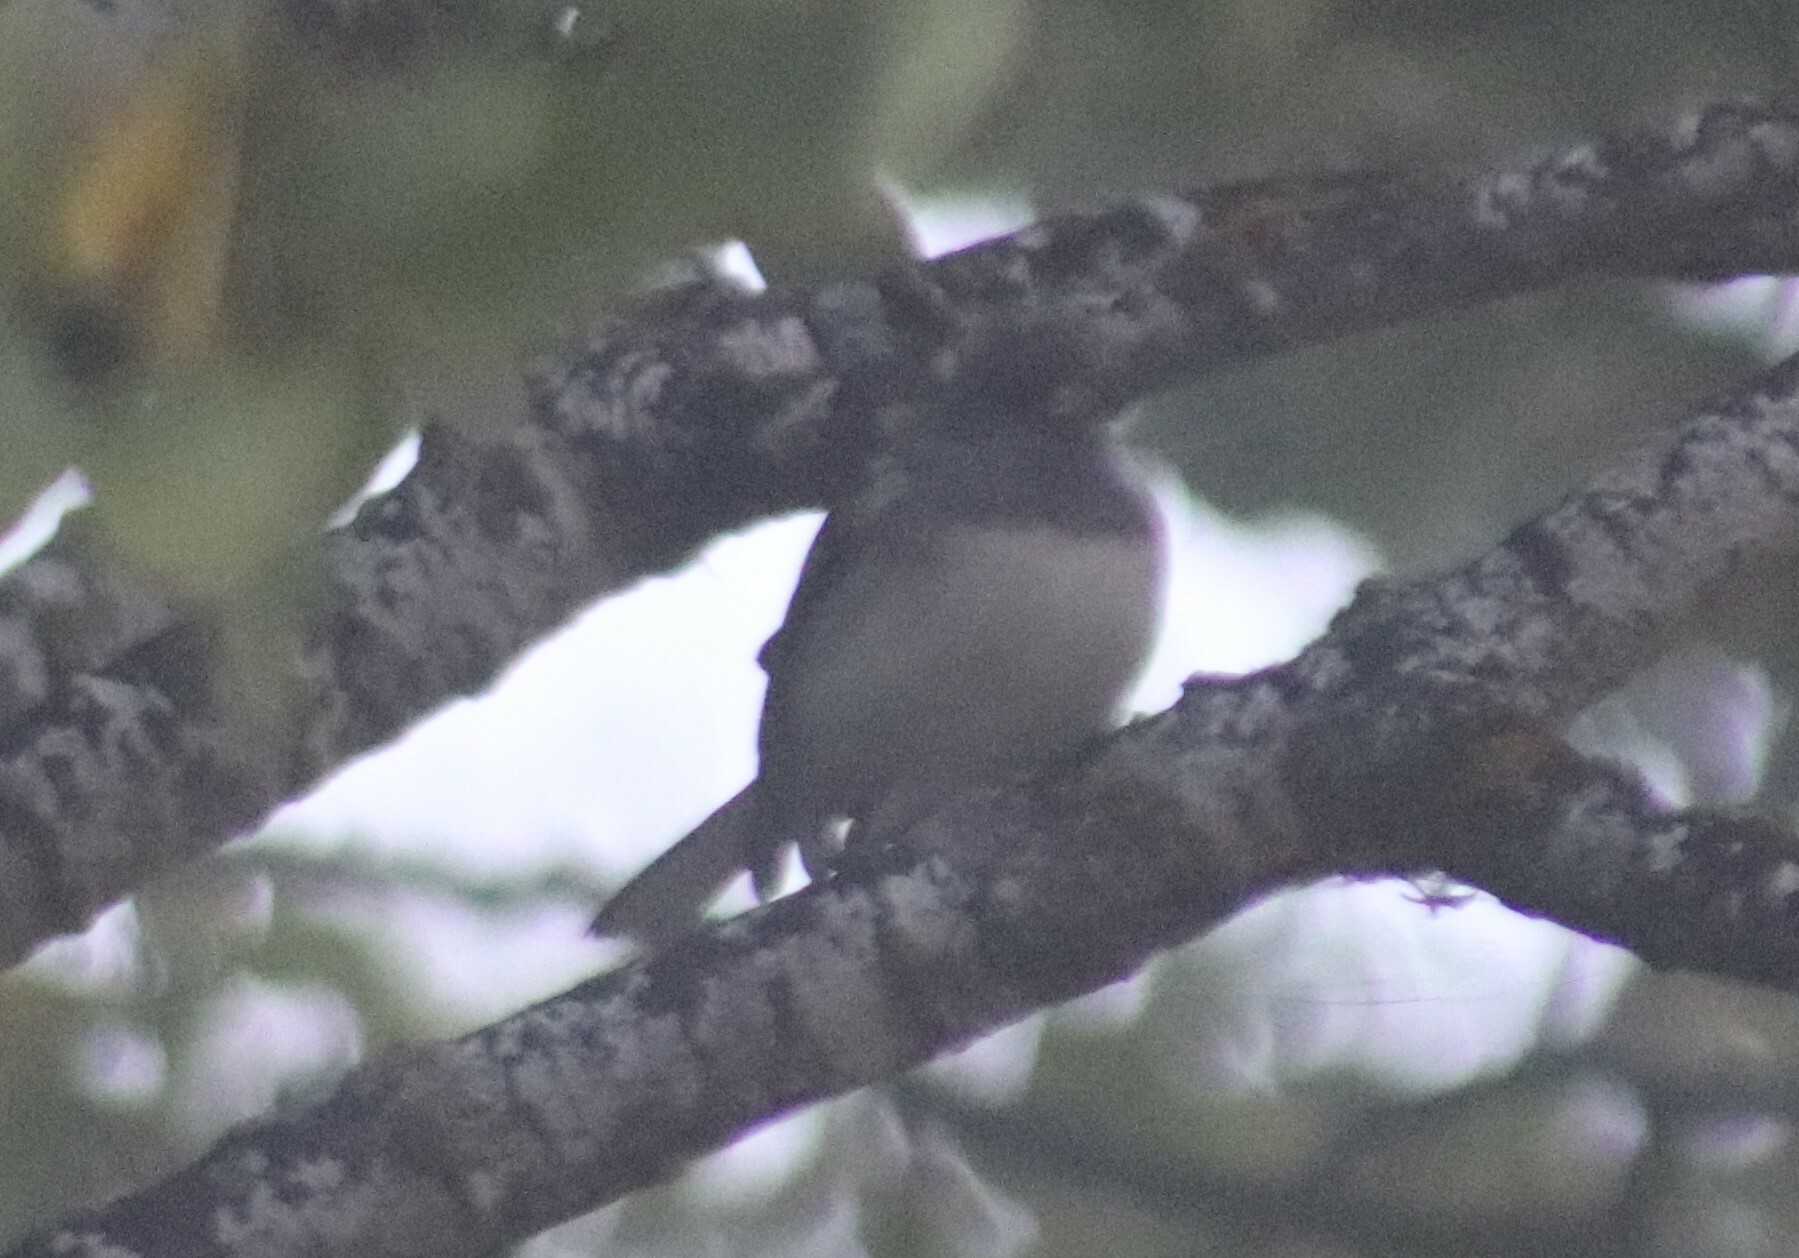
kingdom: Animalia
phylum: Chordata
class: Aves
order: Passeriformes
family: Passerellidae
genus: Junco
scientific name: Junco hyemalis
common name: Dark-eyed junco
